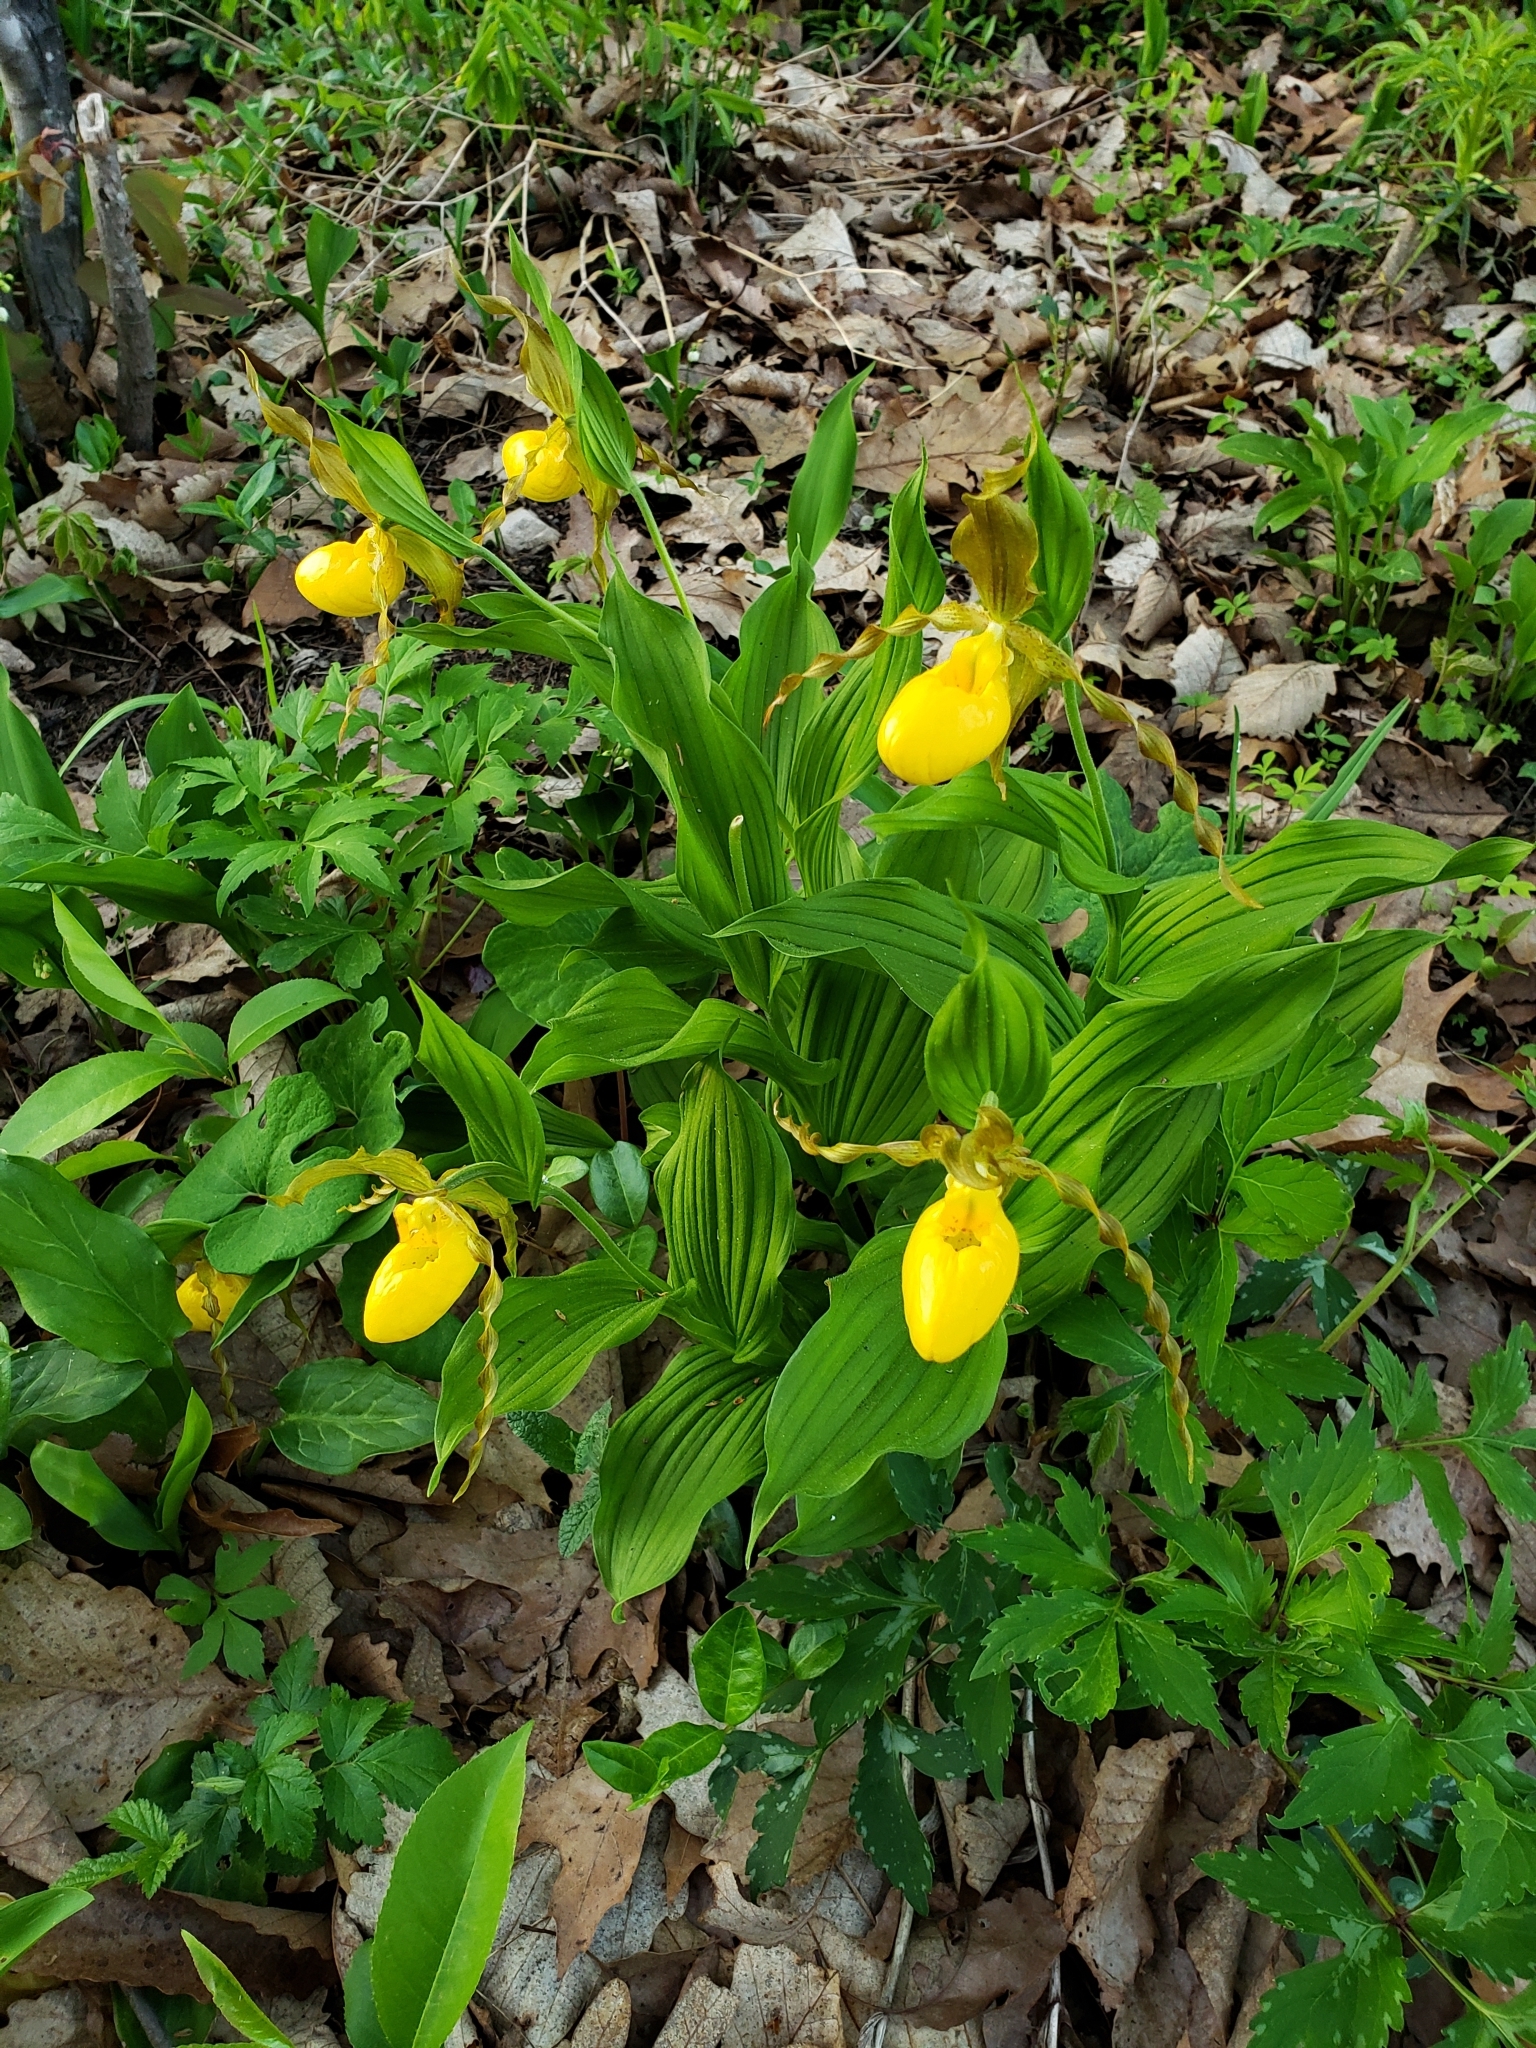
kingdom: Plantae
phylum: Tracheophyta
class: Liliopsida
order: Asparagales
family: Orchidaceae
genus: Cypripedium
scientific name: Cypripedium parviflorum
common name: American yellow lady's-slipper
